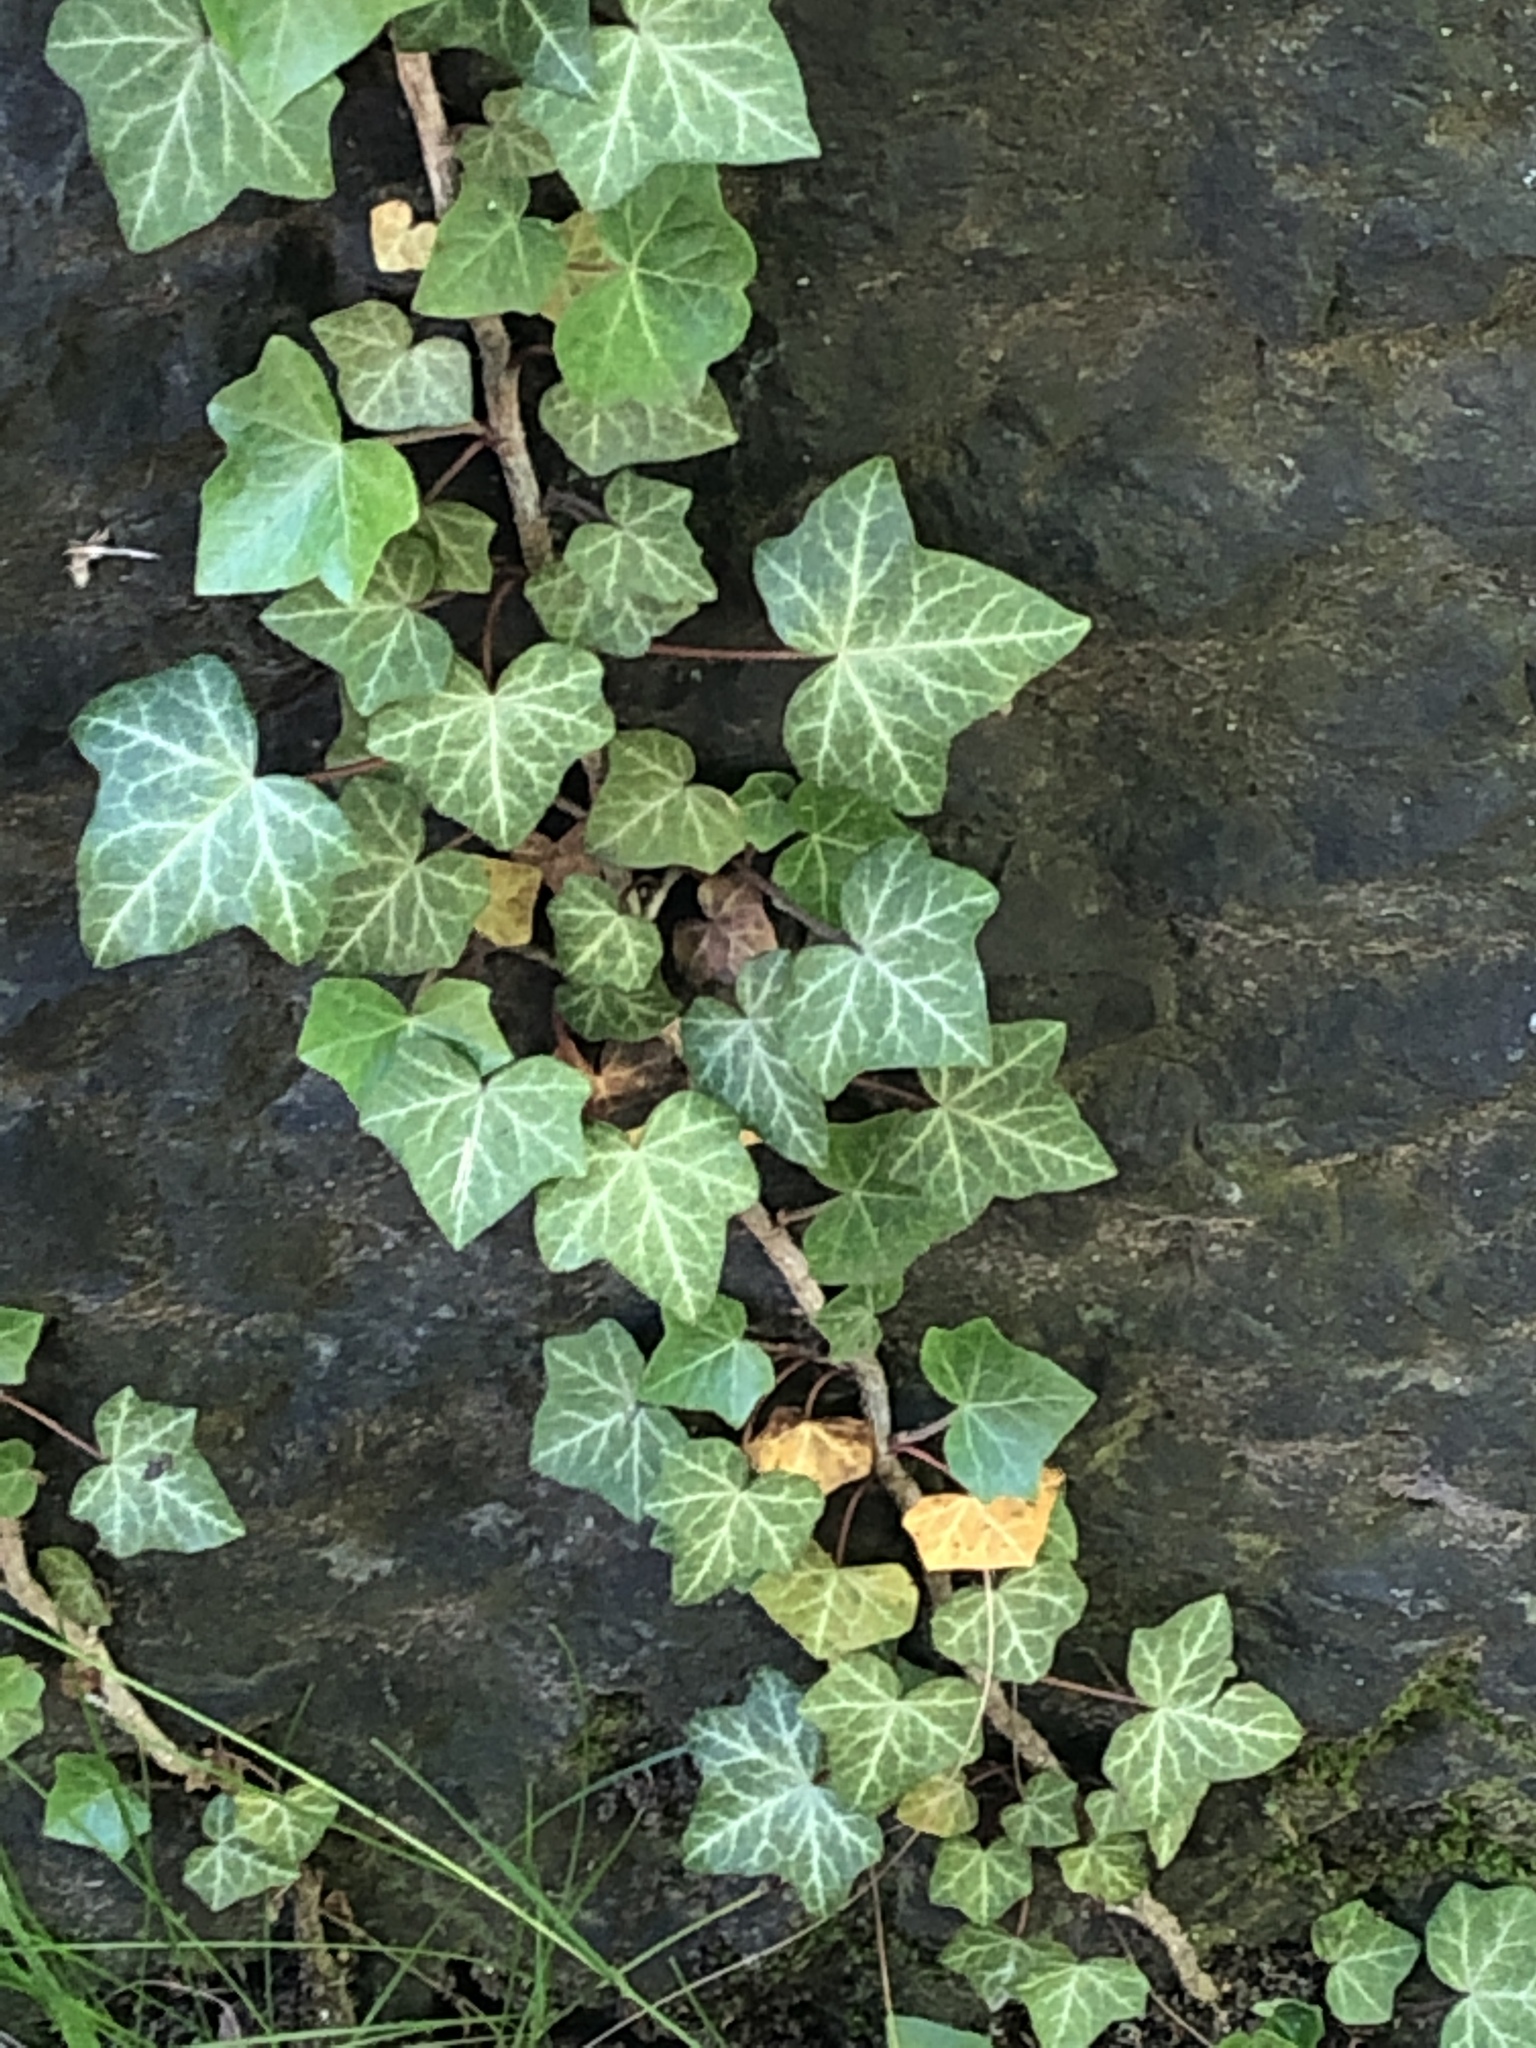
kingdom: Plantae
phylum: Tracheophyta
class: Magnoliopsida
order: Apiales
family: Araliaceae
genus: Hedera
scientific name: Hedera helix
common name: Ivy
